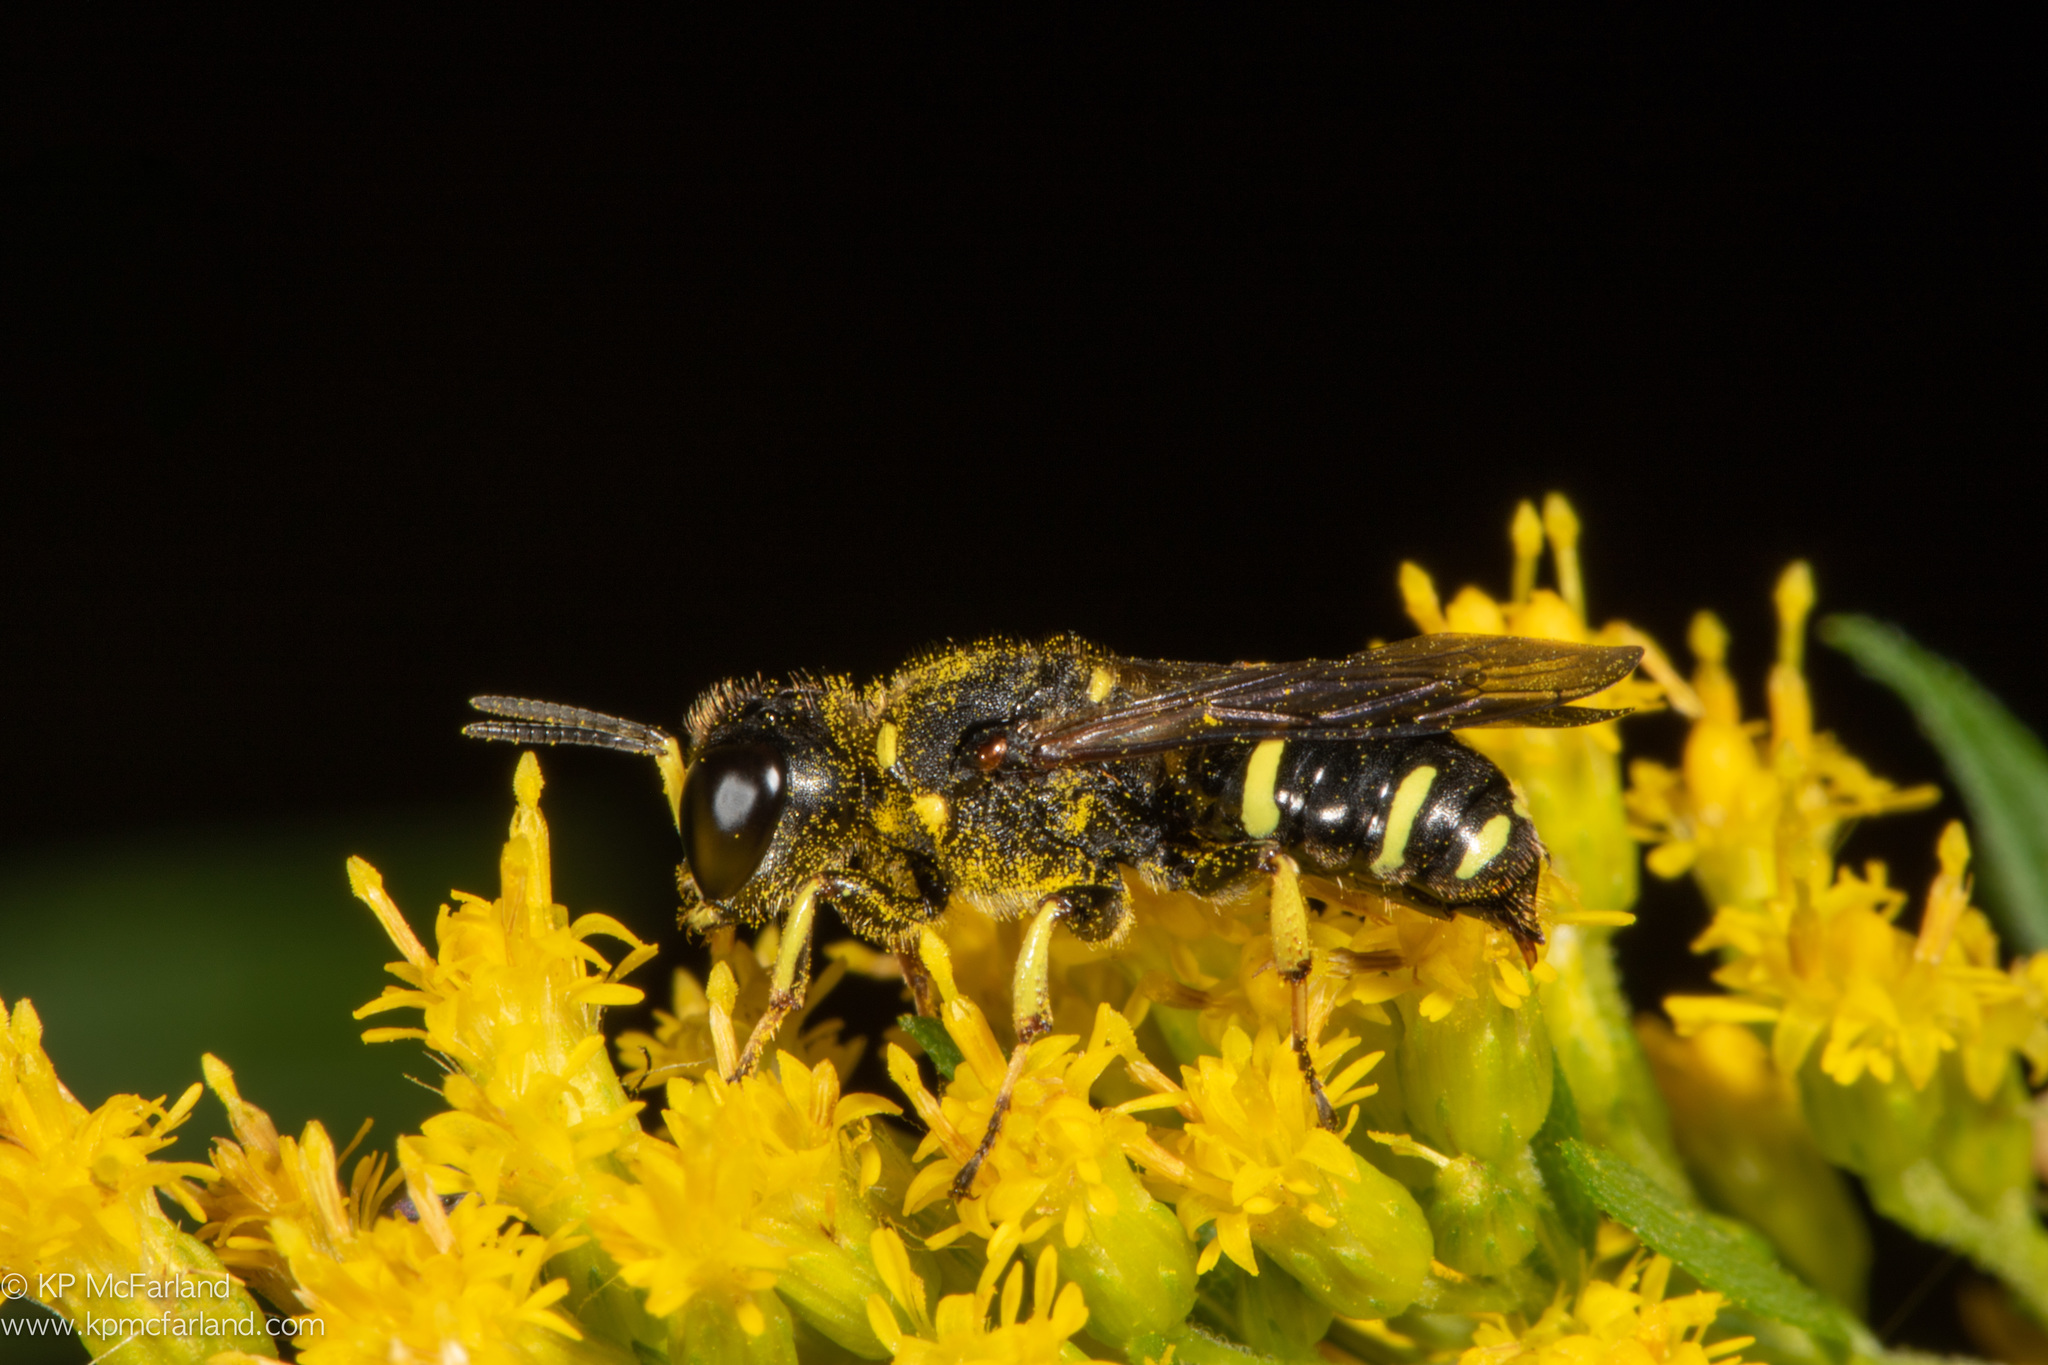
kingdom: Animalia
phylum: Arthropoda
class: Insecta
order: Hymenoptera
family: Crabronidae
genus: Ectemnius
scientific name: Ectemnius continuus
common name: Common ectemnius
